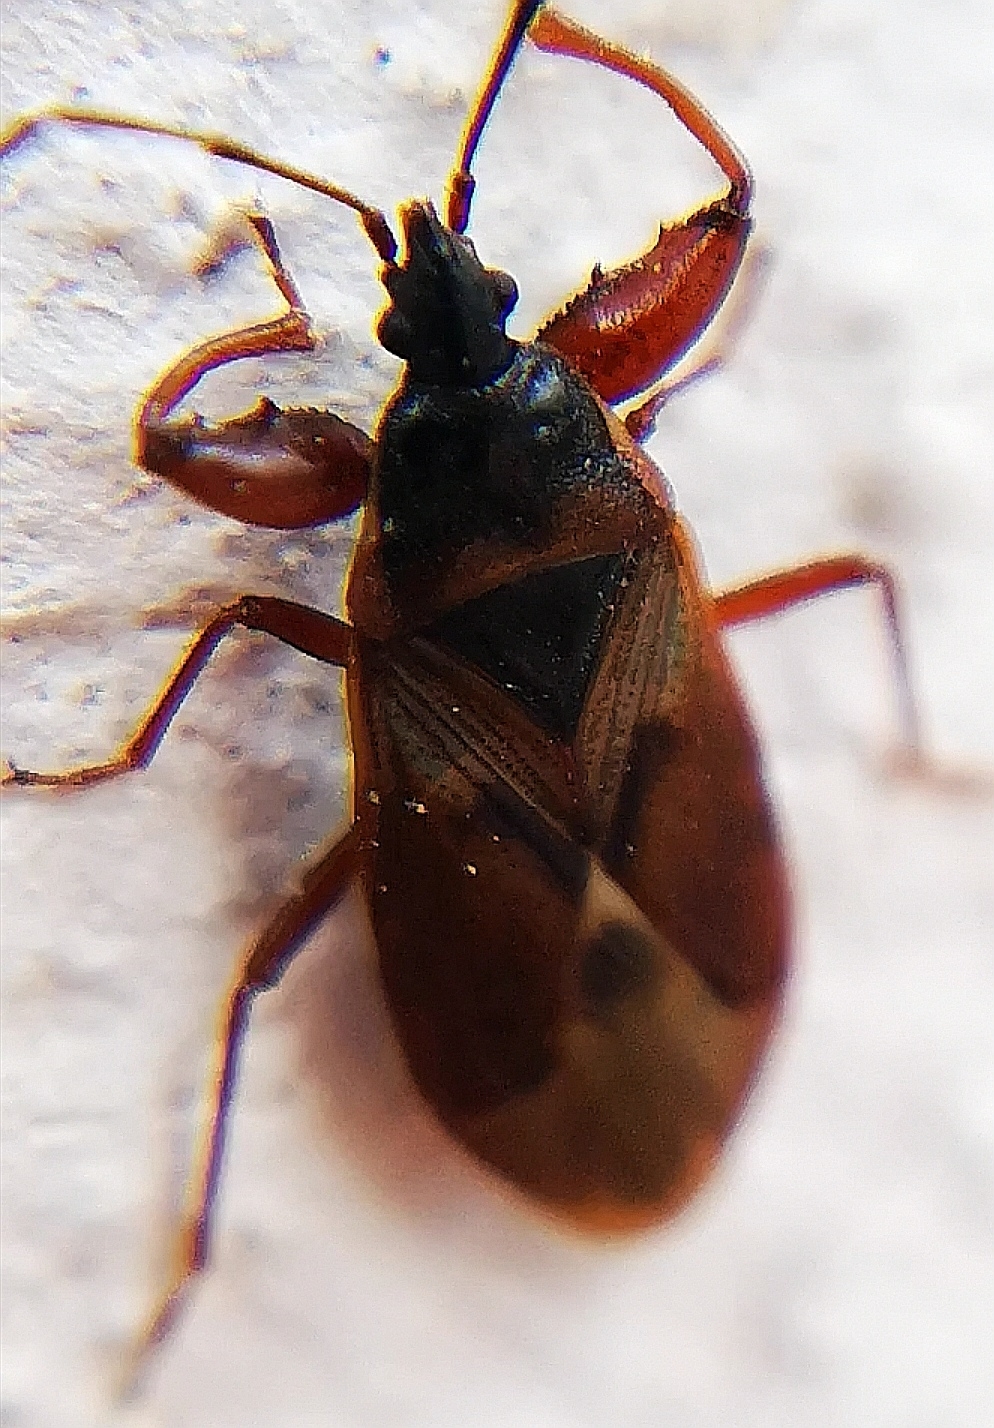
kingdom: Animalia
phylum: Arthropoda
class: Insecta
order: Hemiptera
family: Rhyparochromidae
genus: Gastrodes
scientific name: Gastrodes abietum
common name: Spruce cone bug
